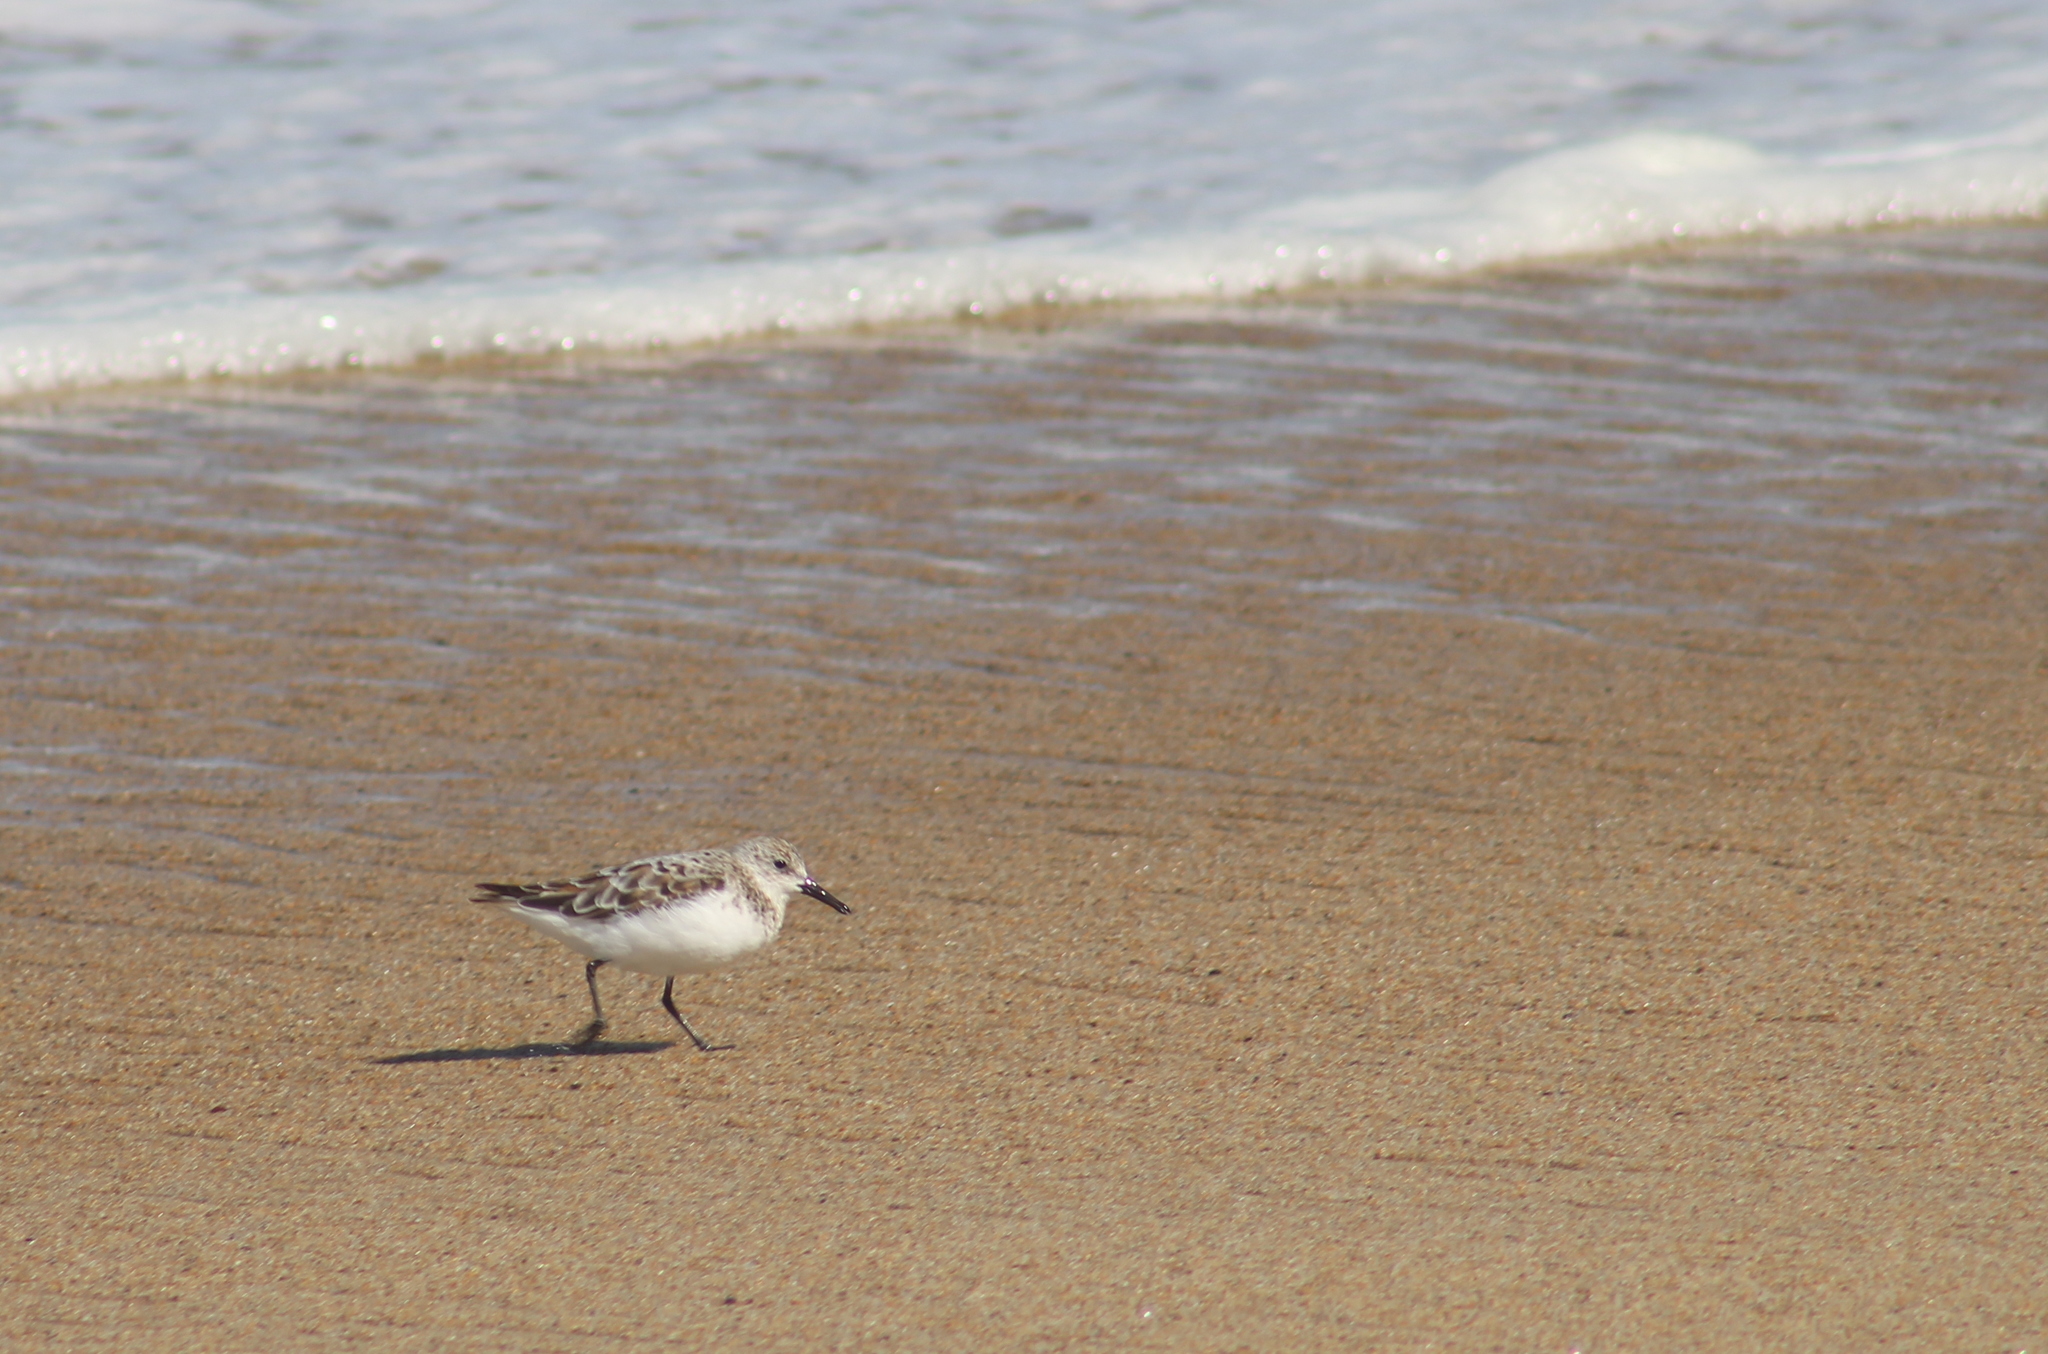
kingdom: Animalia
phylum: Chordata
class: Aves
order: Charadriiformes
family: Scolopacidae
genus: Calidris
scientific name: Calidris alba
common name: Sanderling
